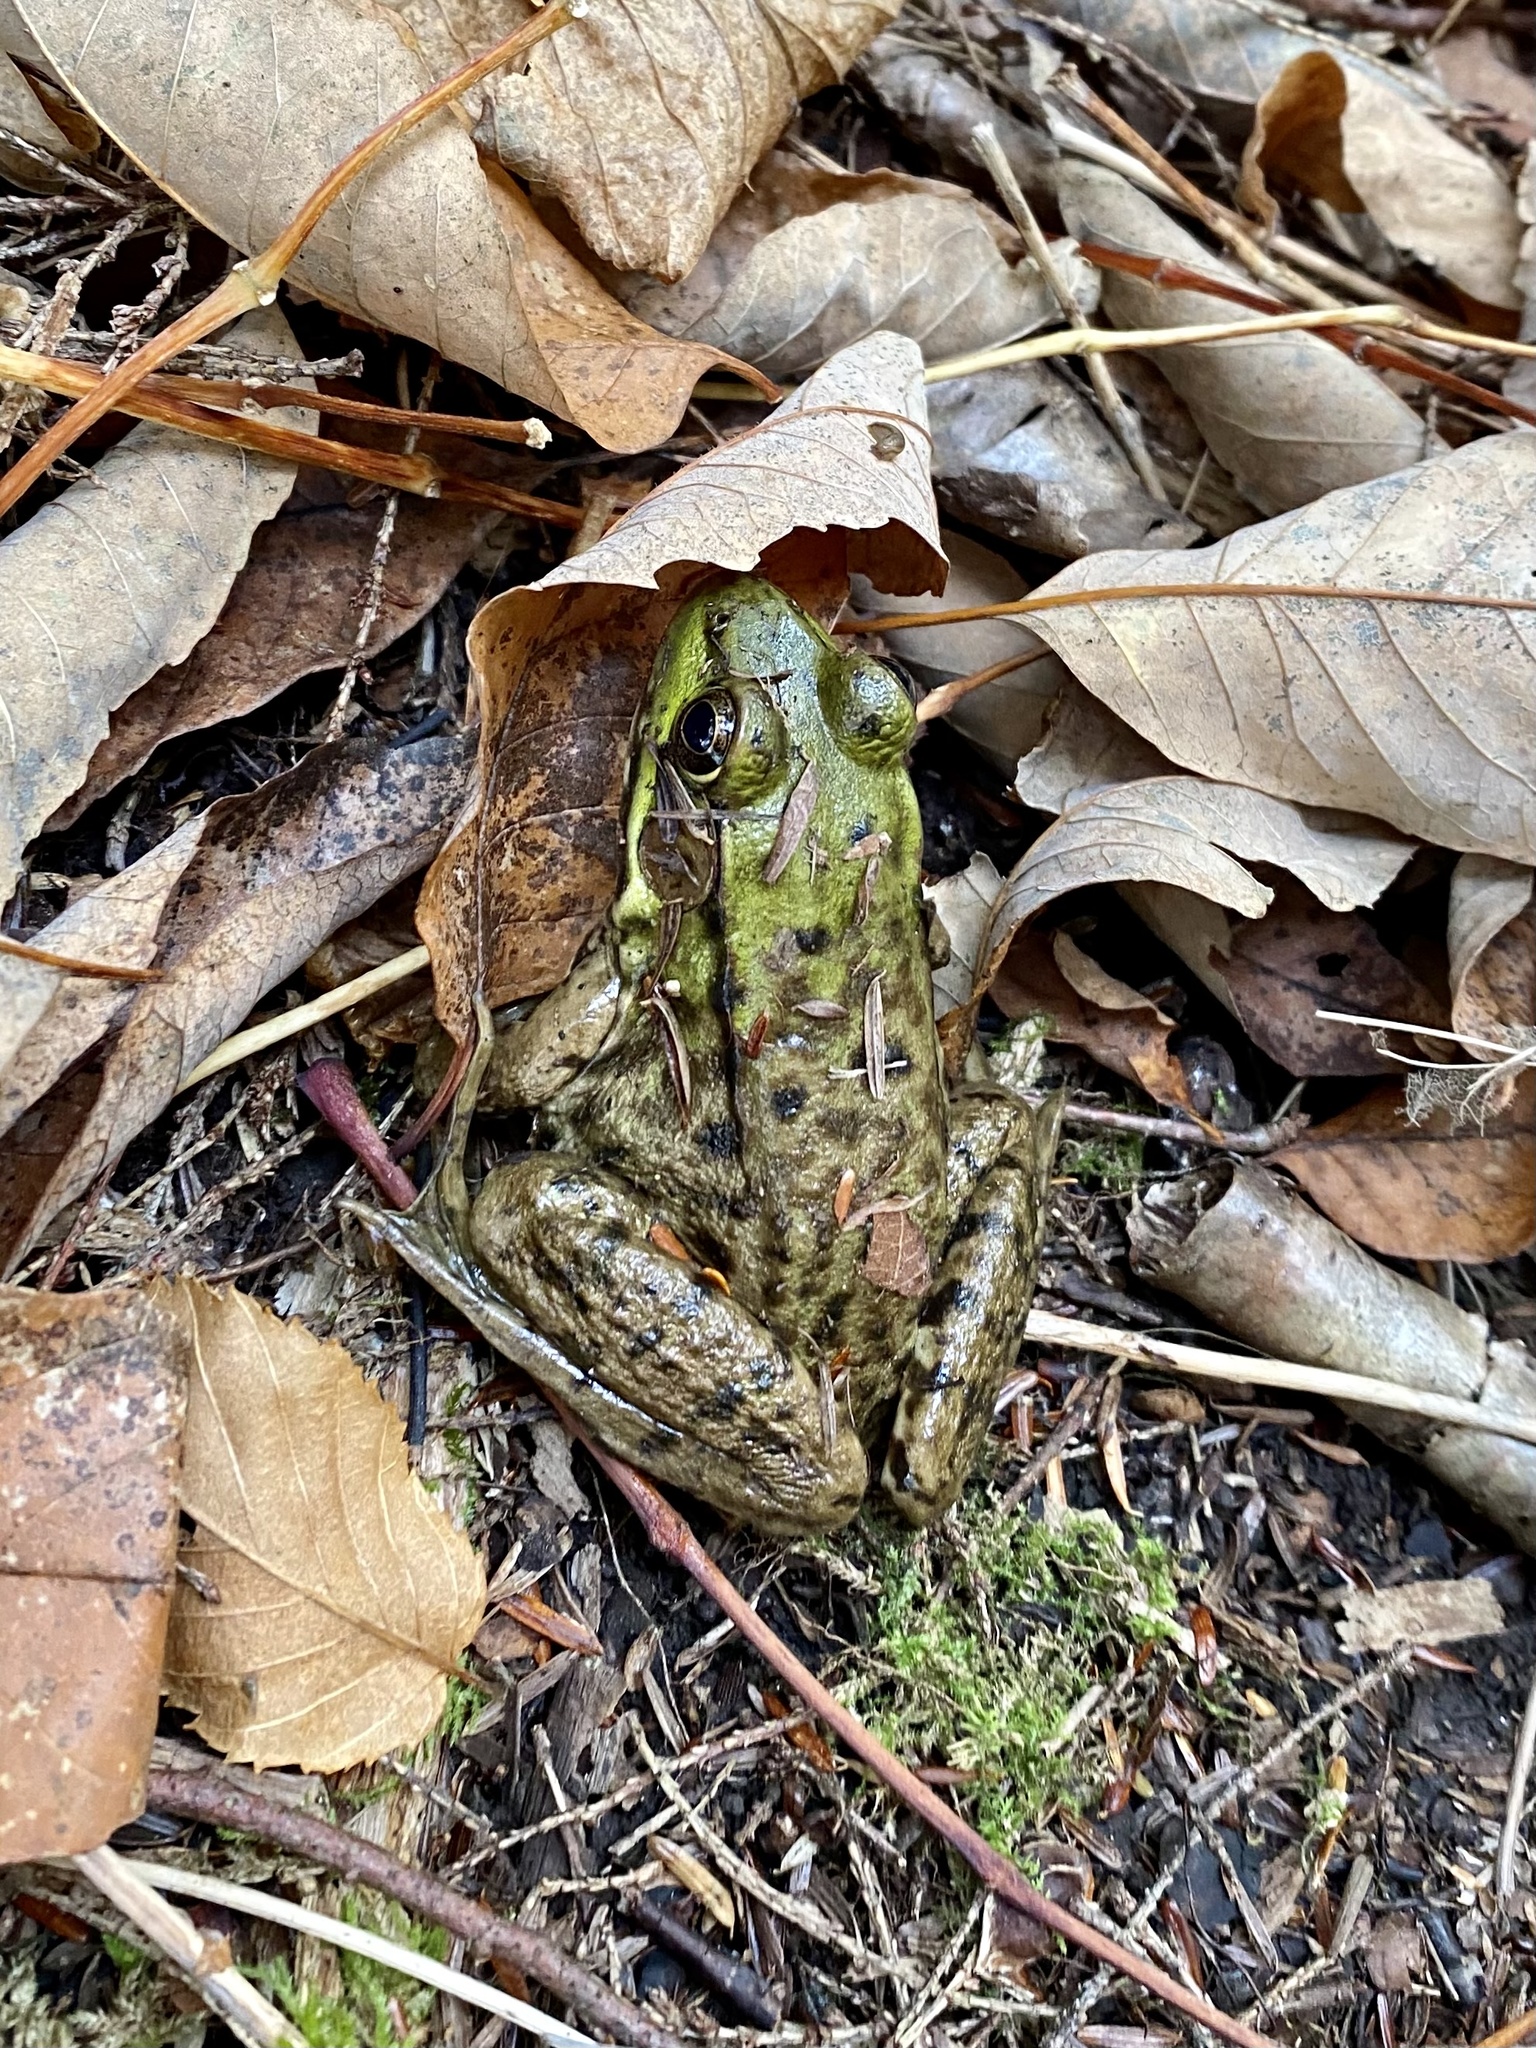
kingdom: Animalia
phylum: Chordata
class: Amphibia
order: Anura
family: Ranidae
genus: Lithobates
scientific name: Lithobates clamitans
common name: Green frog
